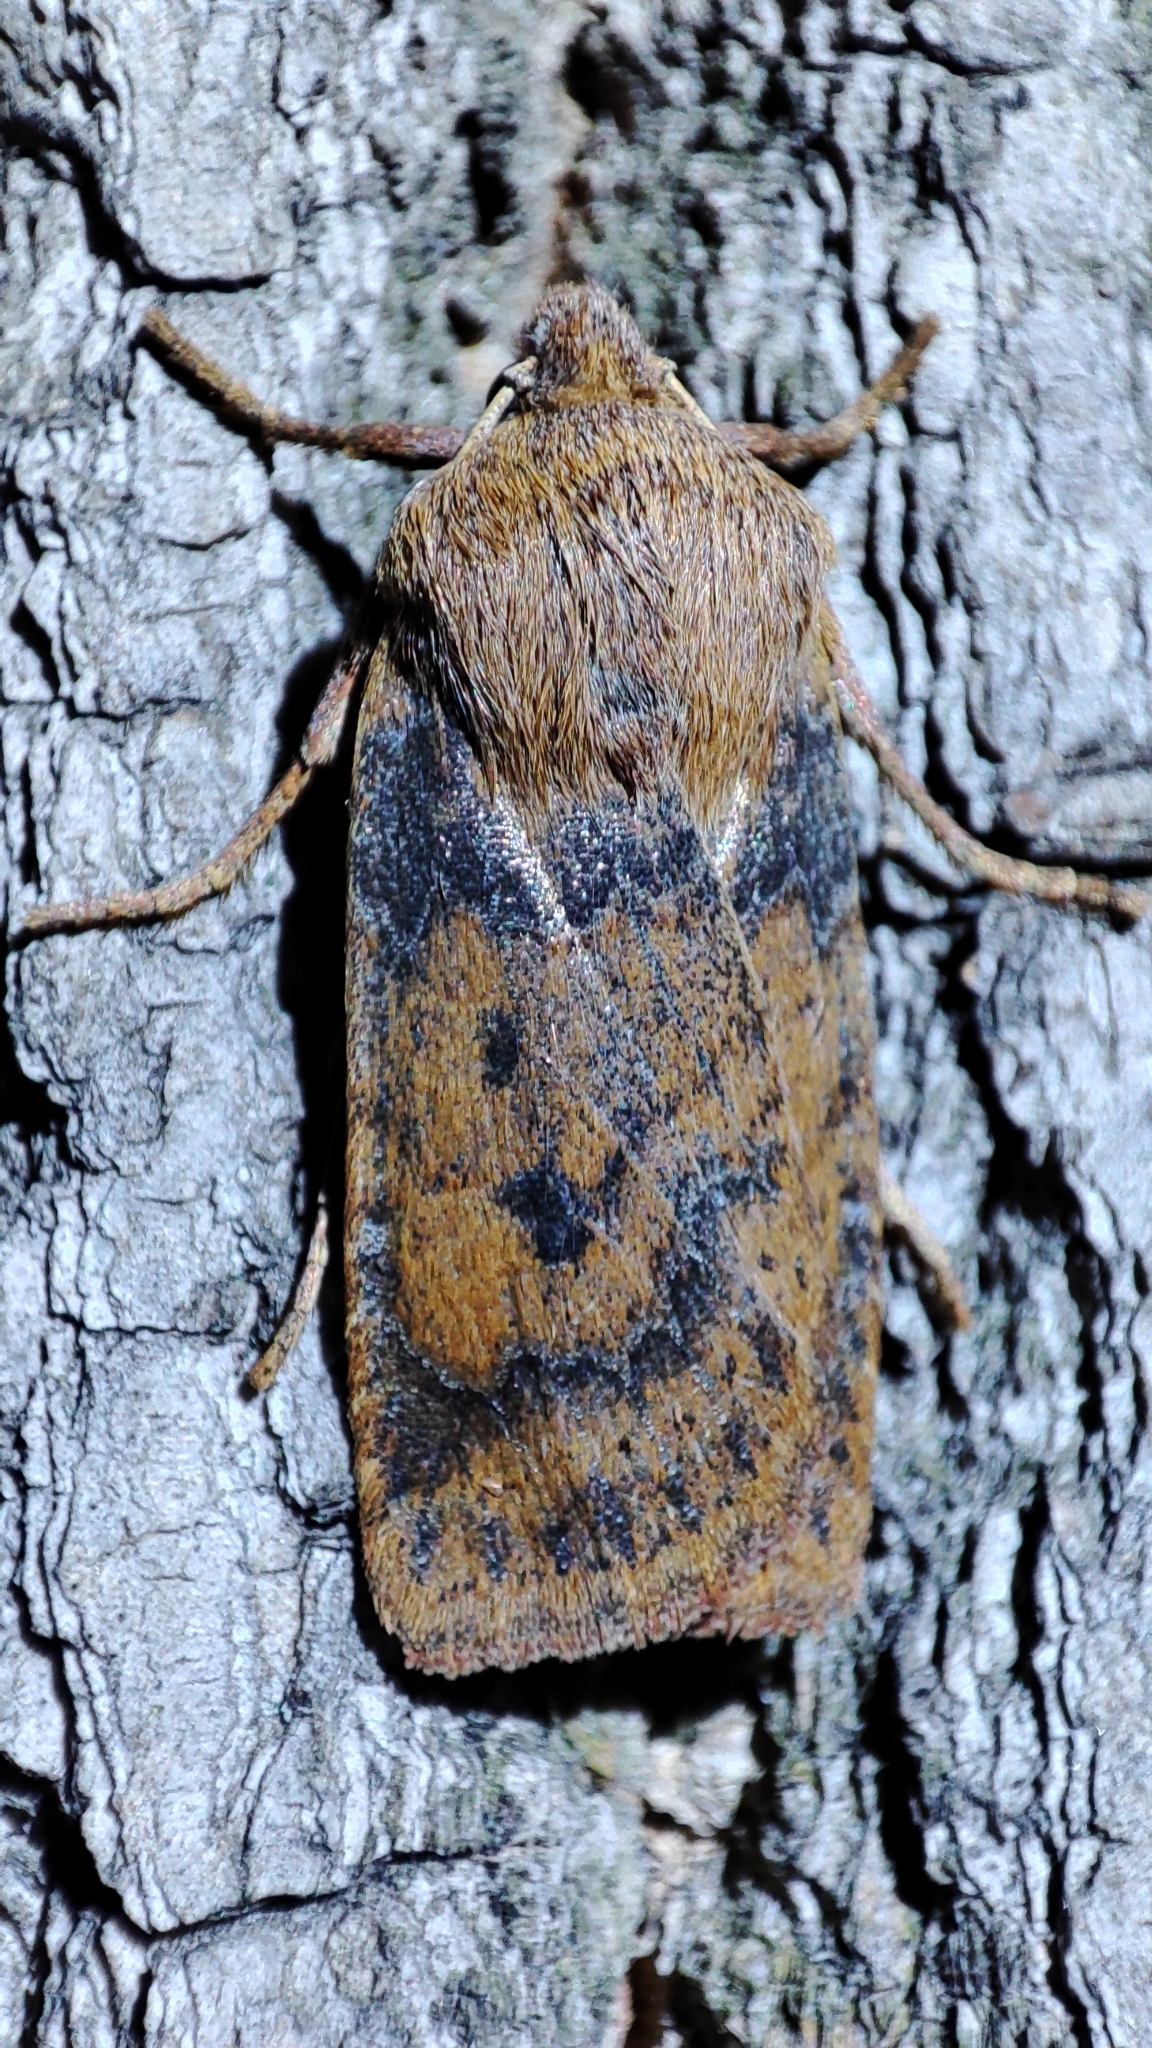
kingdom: Animalia
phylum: Arthropoda
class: Insecta
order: Lepidoptera
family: Noctuidae
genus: Conistra
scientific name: Conistra vaccinii
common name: Chestnut
